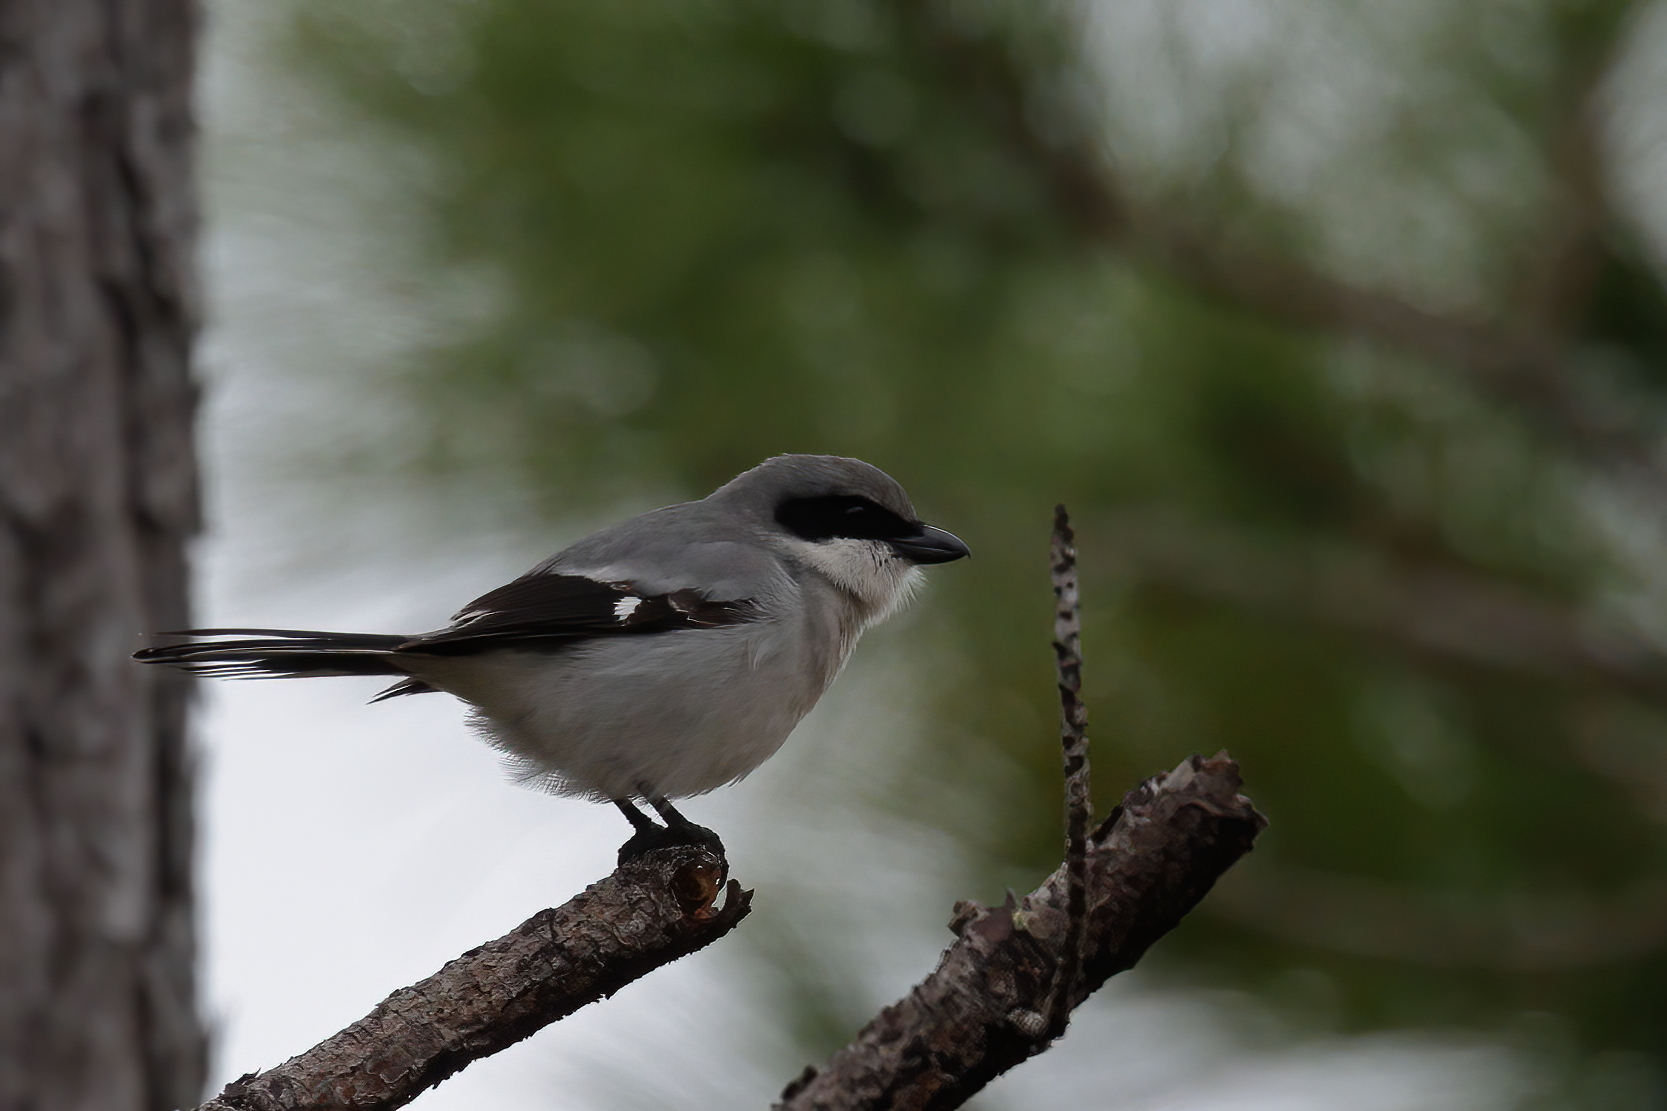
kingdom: Animalia
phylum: Chordata
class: Aves
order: Passeriformes
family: Laniidae
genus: Lanius
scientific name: Lanius ludovicianus
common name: Loggerhead shrike
